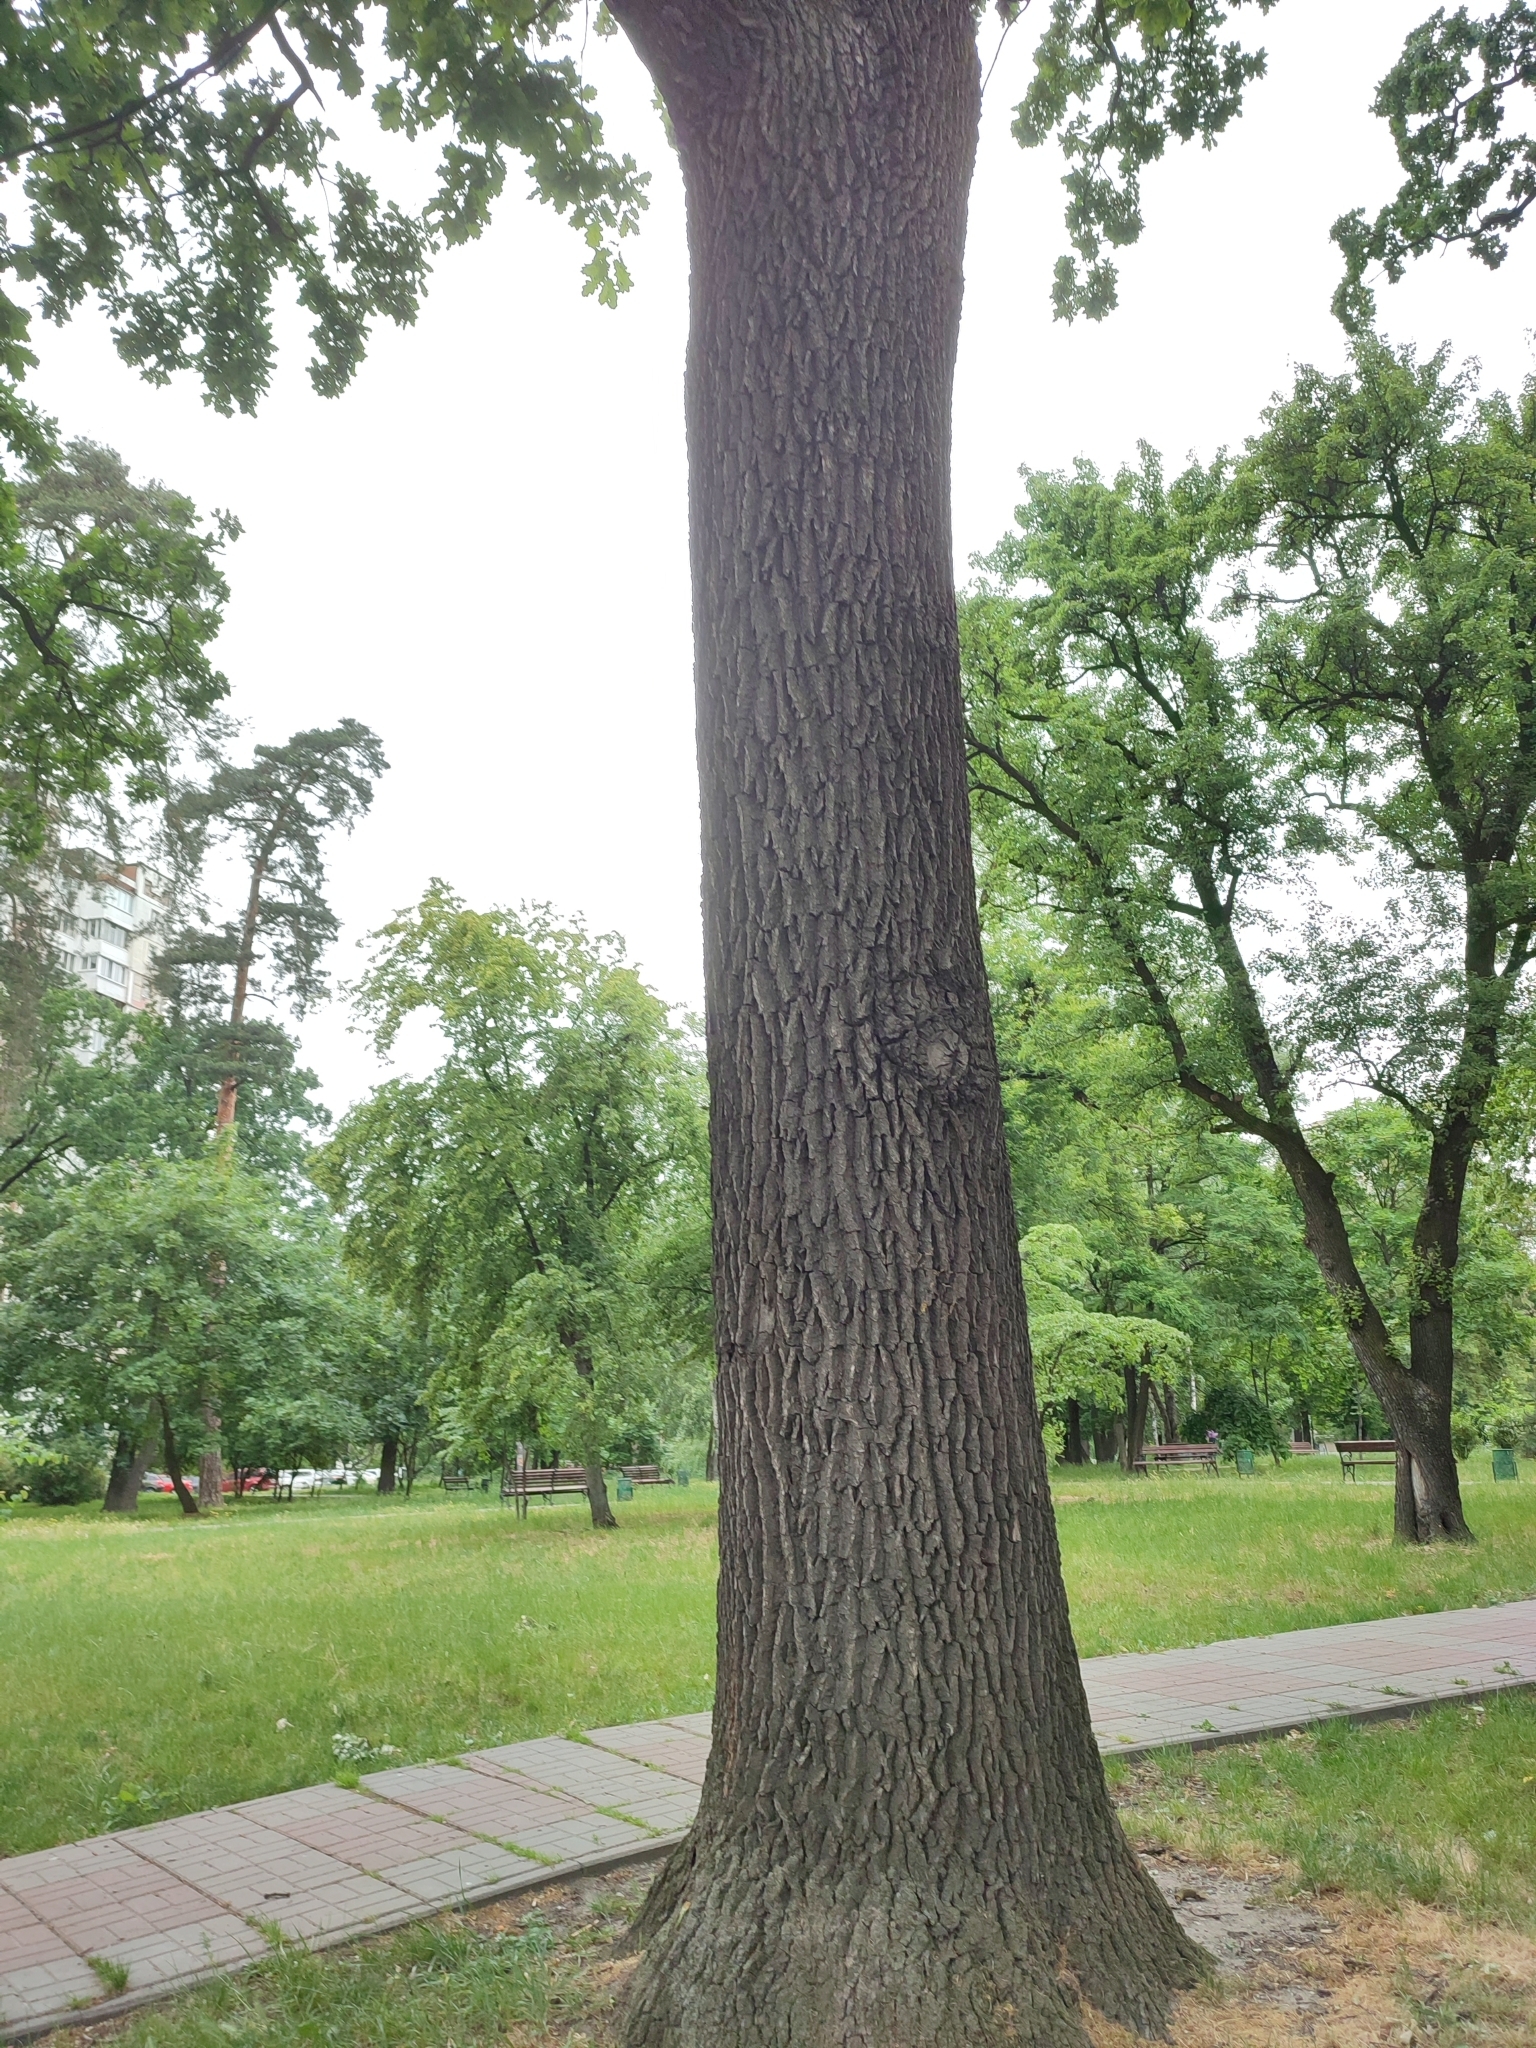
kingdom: Plantae
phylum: Tracheophyta
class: Magnoliopsida
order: Fagales
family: Fagaceae
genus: Quercus
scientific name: Quercus robur
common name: Pedunculate oak
